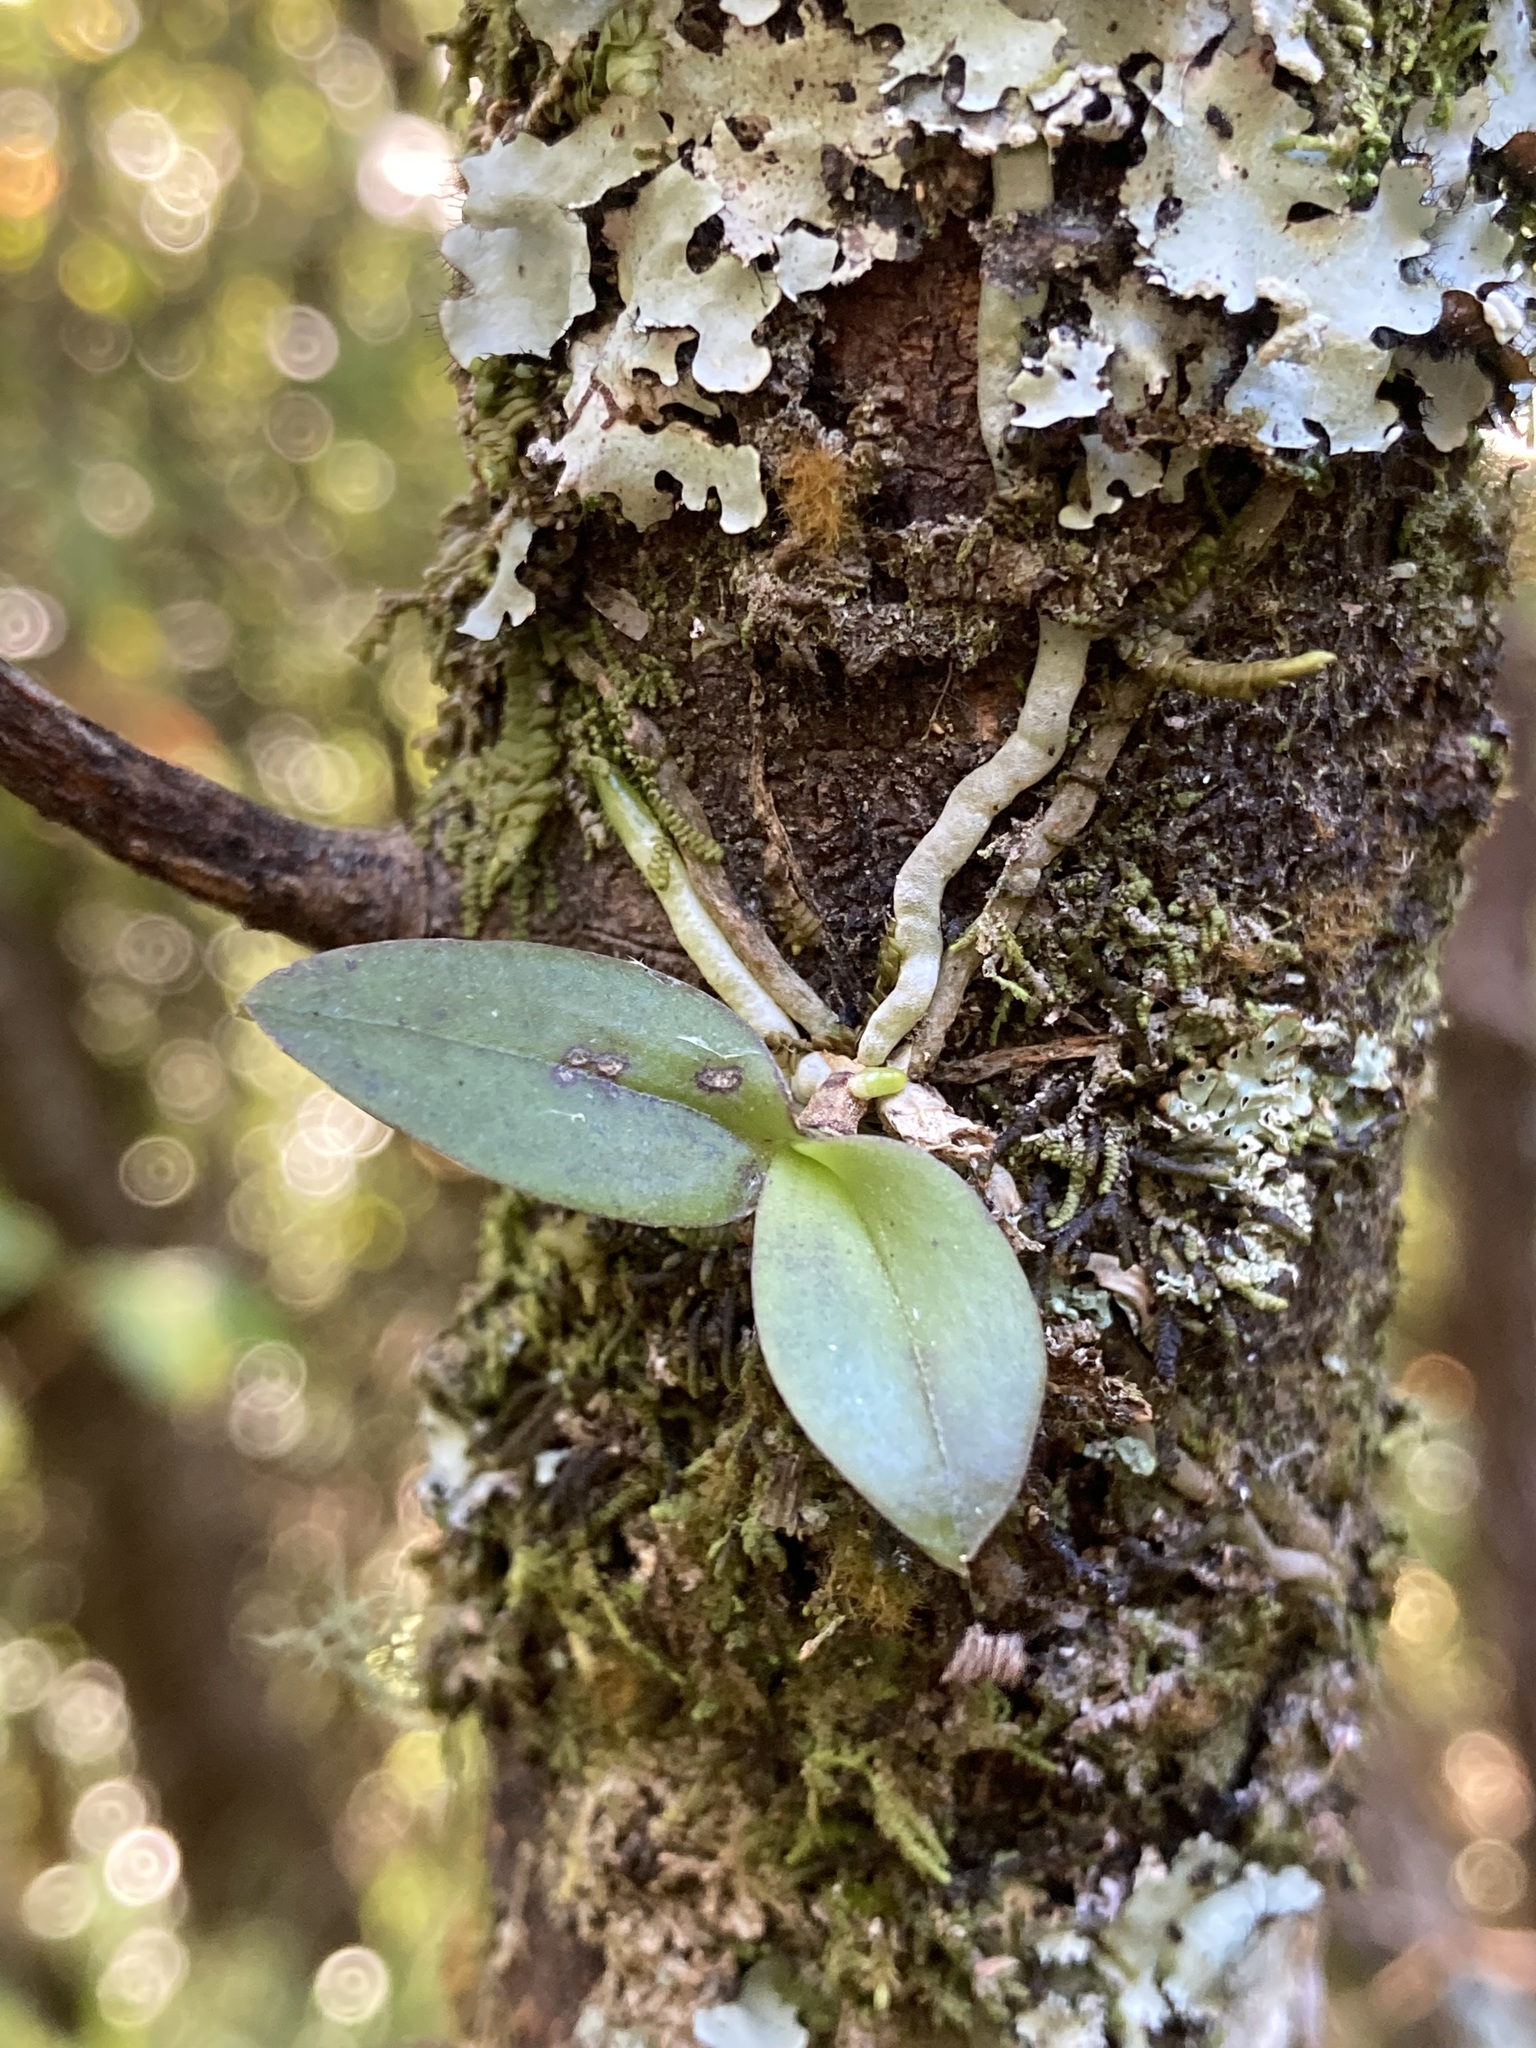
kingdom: Plantae
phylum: Tracheophyta
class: Liliopsida
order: Asparagales
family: Orchidaceae
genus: Drymoanthus
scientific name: Drymoanthus adversus
